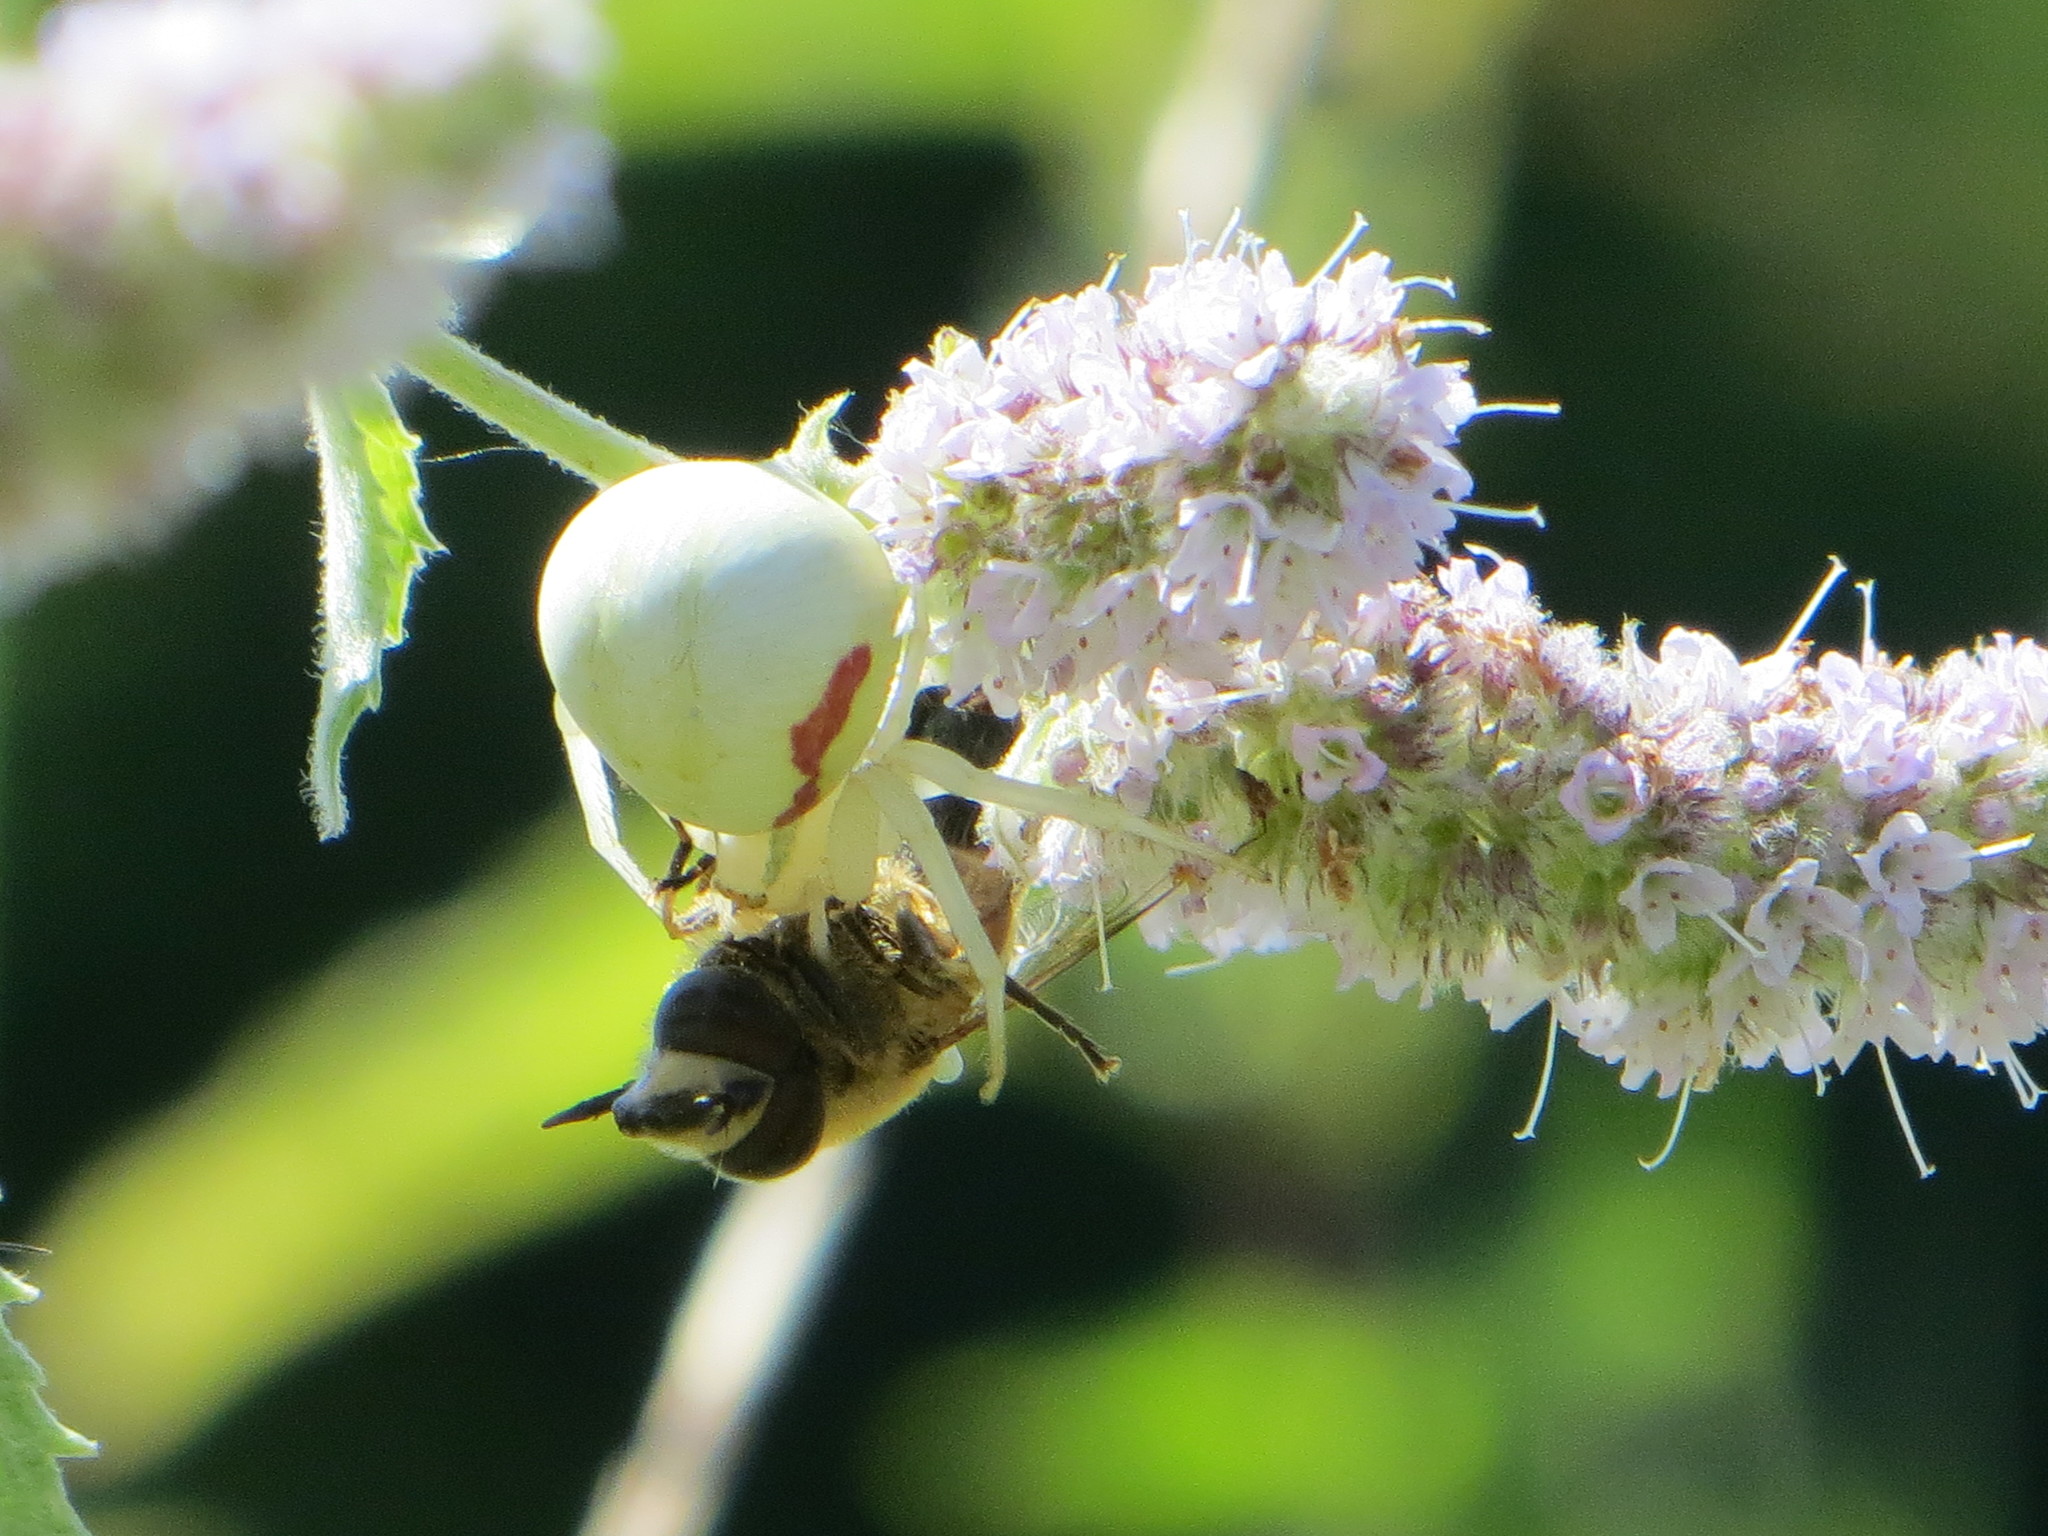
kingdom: Animalia
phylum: Arthropoda
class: Arachnida
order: Araneae
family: Thomisidae
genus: Misumena
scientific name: Misumena vatia
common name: Goldenrod crab spider
